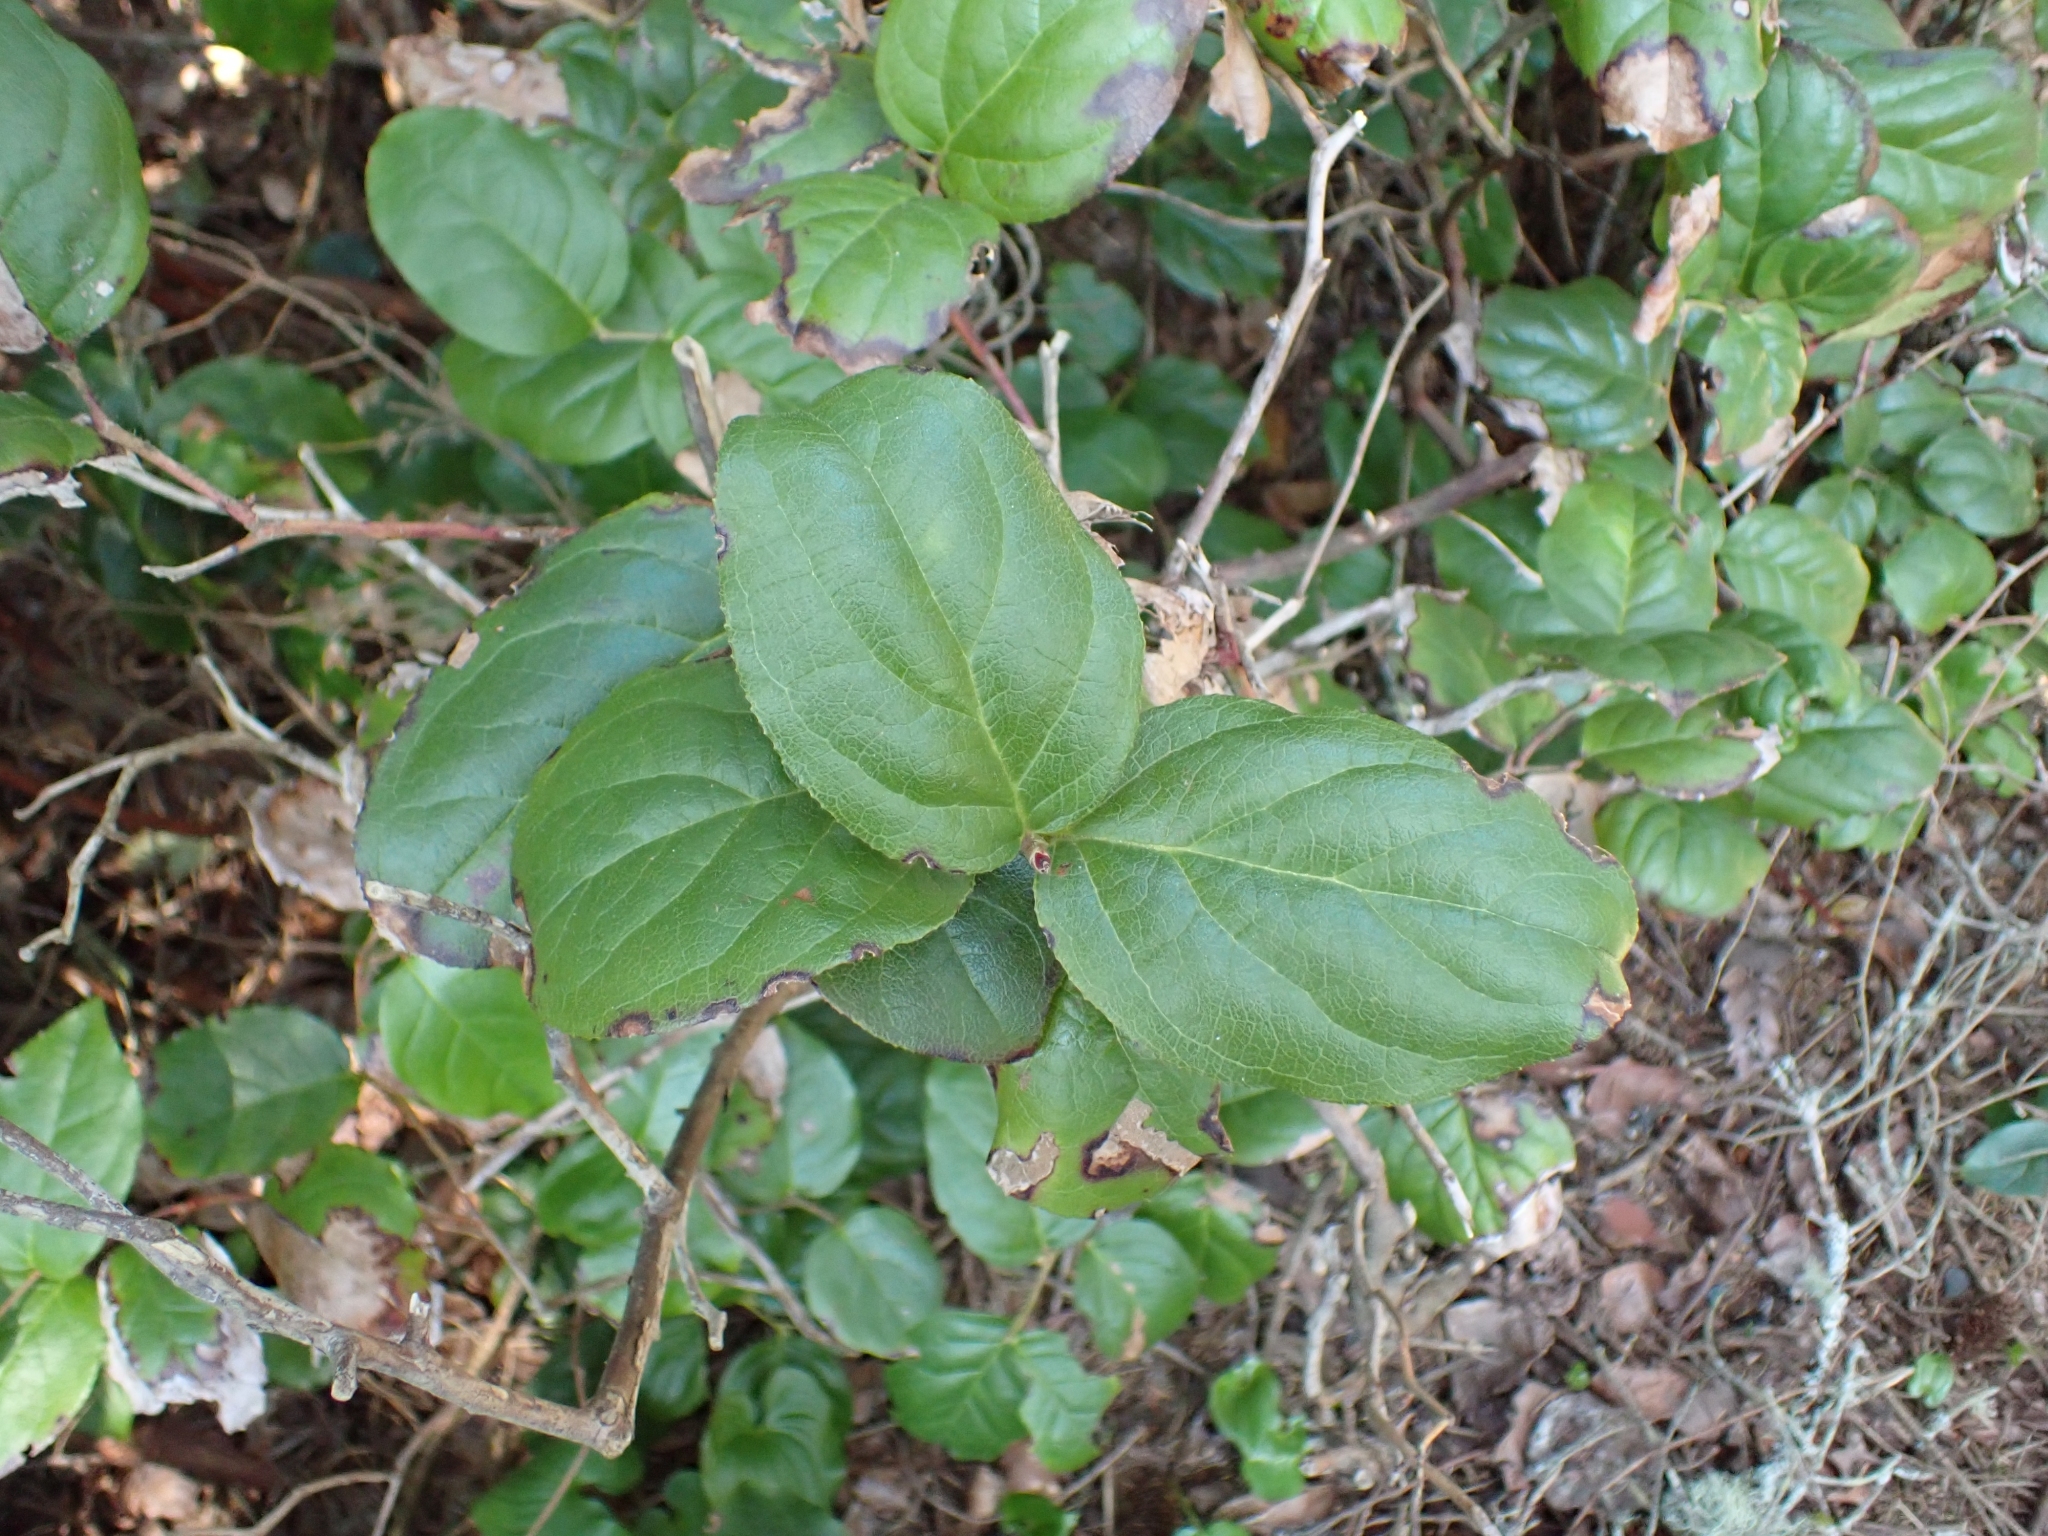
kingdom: Plantae
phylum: Tracheophyta
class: Magnoliopsida
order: Ericales
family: Ericaceae
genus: Gaultheria
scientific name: Gaultheria shallon
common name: Shallon
